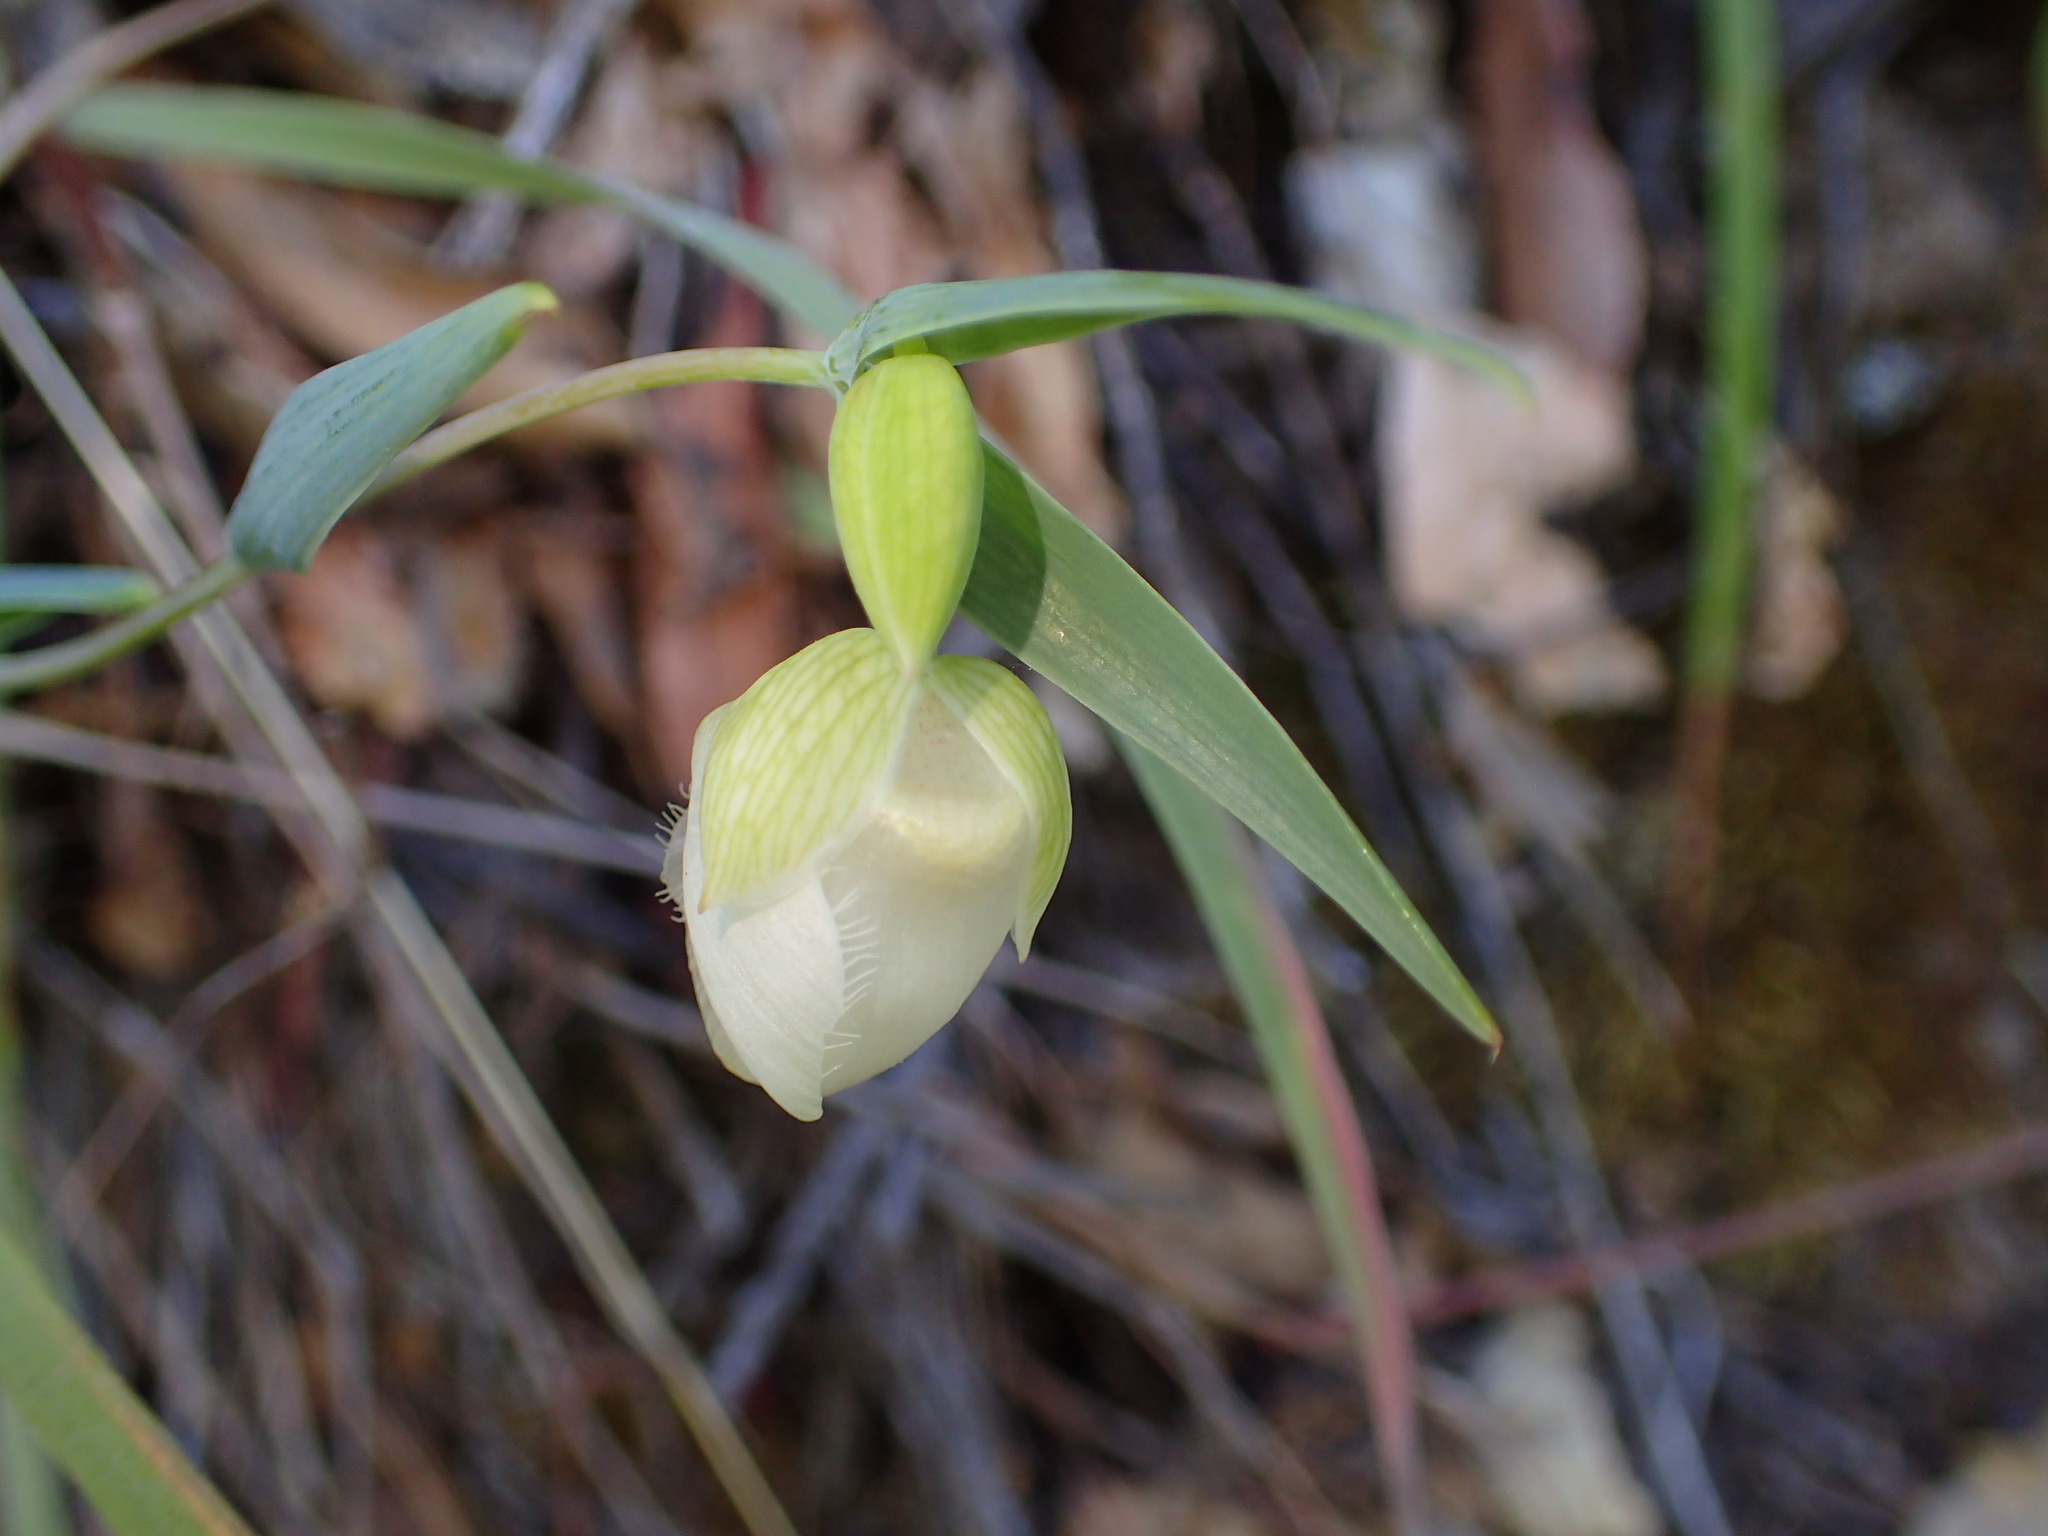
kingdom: Plantae
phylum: Tracheophyta
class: Liliopsida
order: Liliales
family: Liliaceae
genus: Calochortus
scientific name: Calochortus albus
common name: Fairy-lantern
